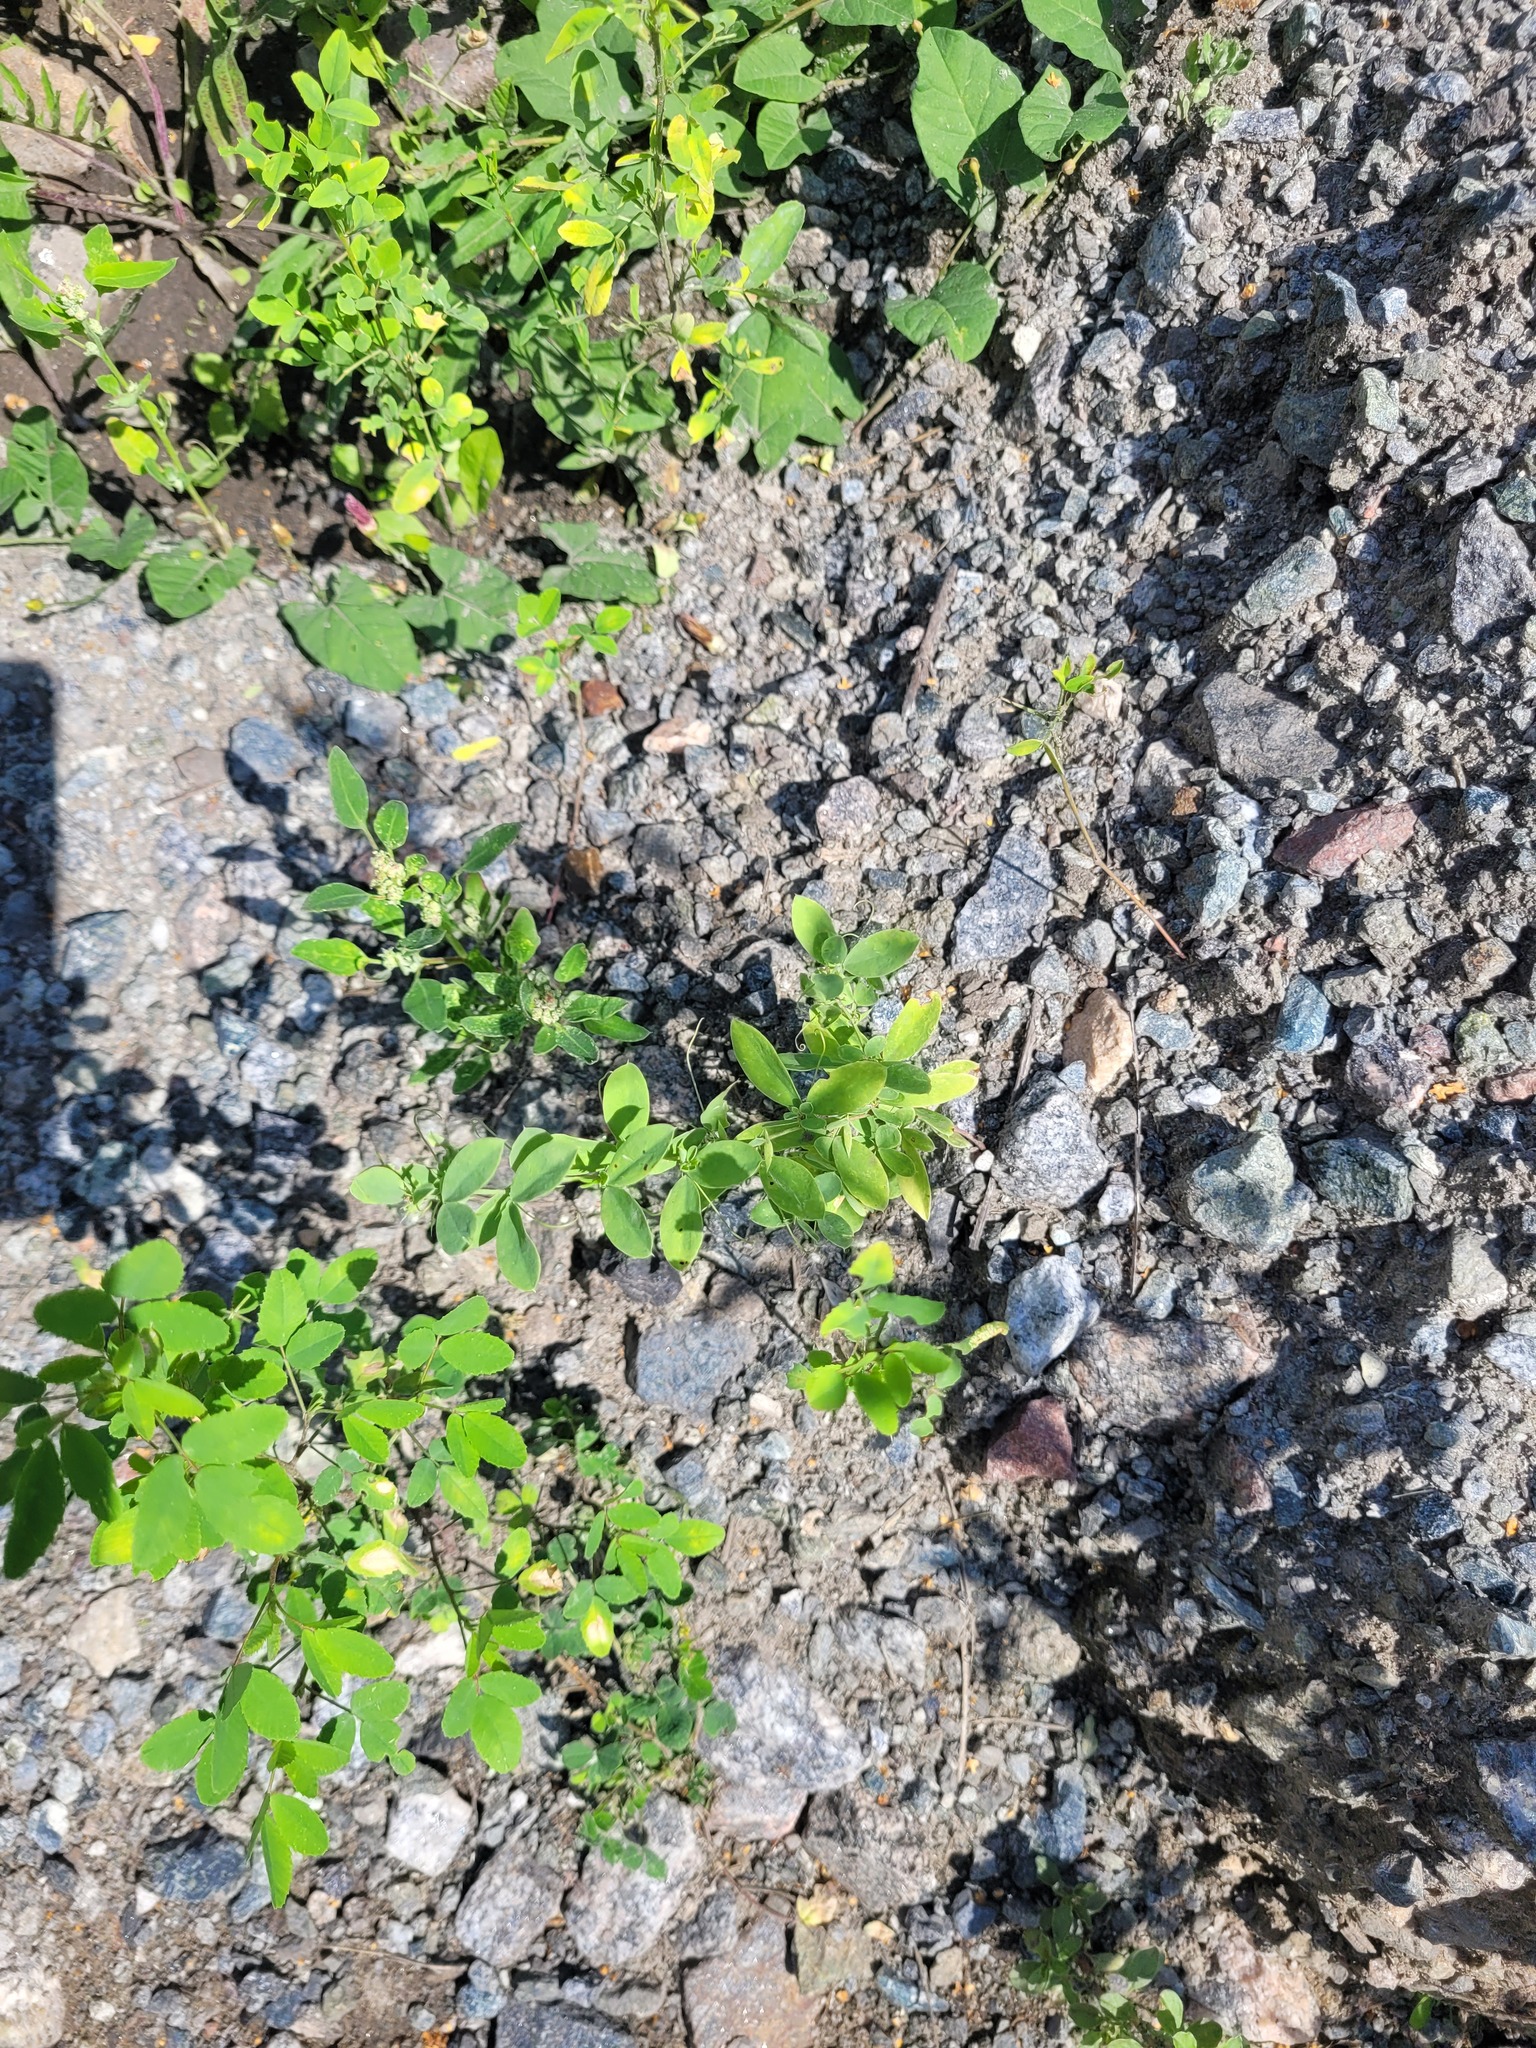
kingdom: Plantae
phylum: Tracheophyta
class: Magnoliopsida
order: Fabales
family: Fabaceae
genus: Lathyrus
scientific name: Lathyrus tuberosus
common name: Tuberous pea
